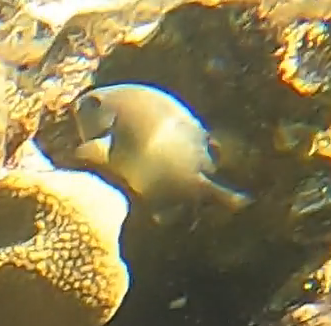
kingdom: Animalia
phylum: Chordata
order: Perciformes
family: Pomacentridae
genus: Plectroglyphidodon
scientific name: Plectroglyphidodon leucozonus
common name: White-band damsel
